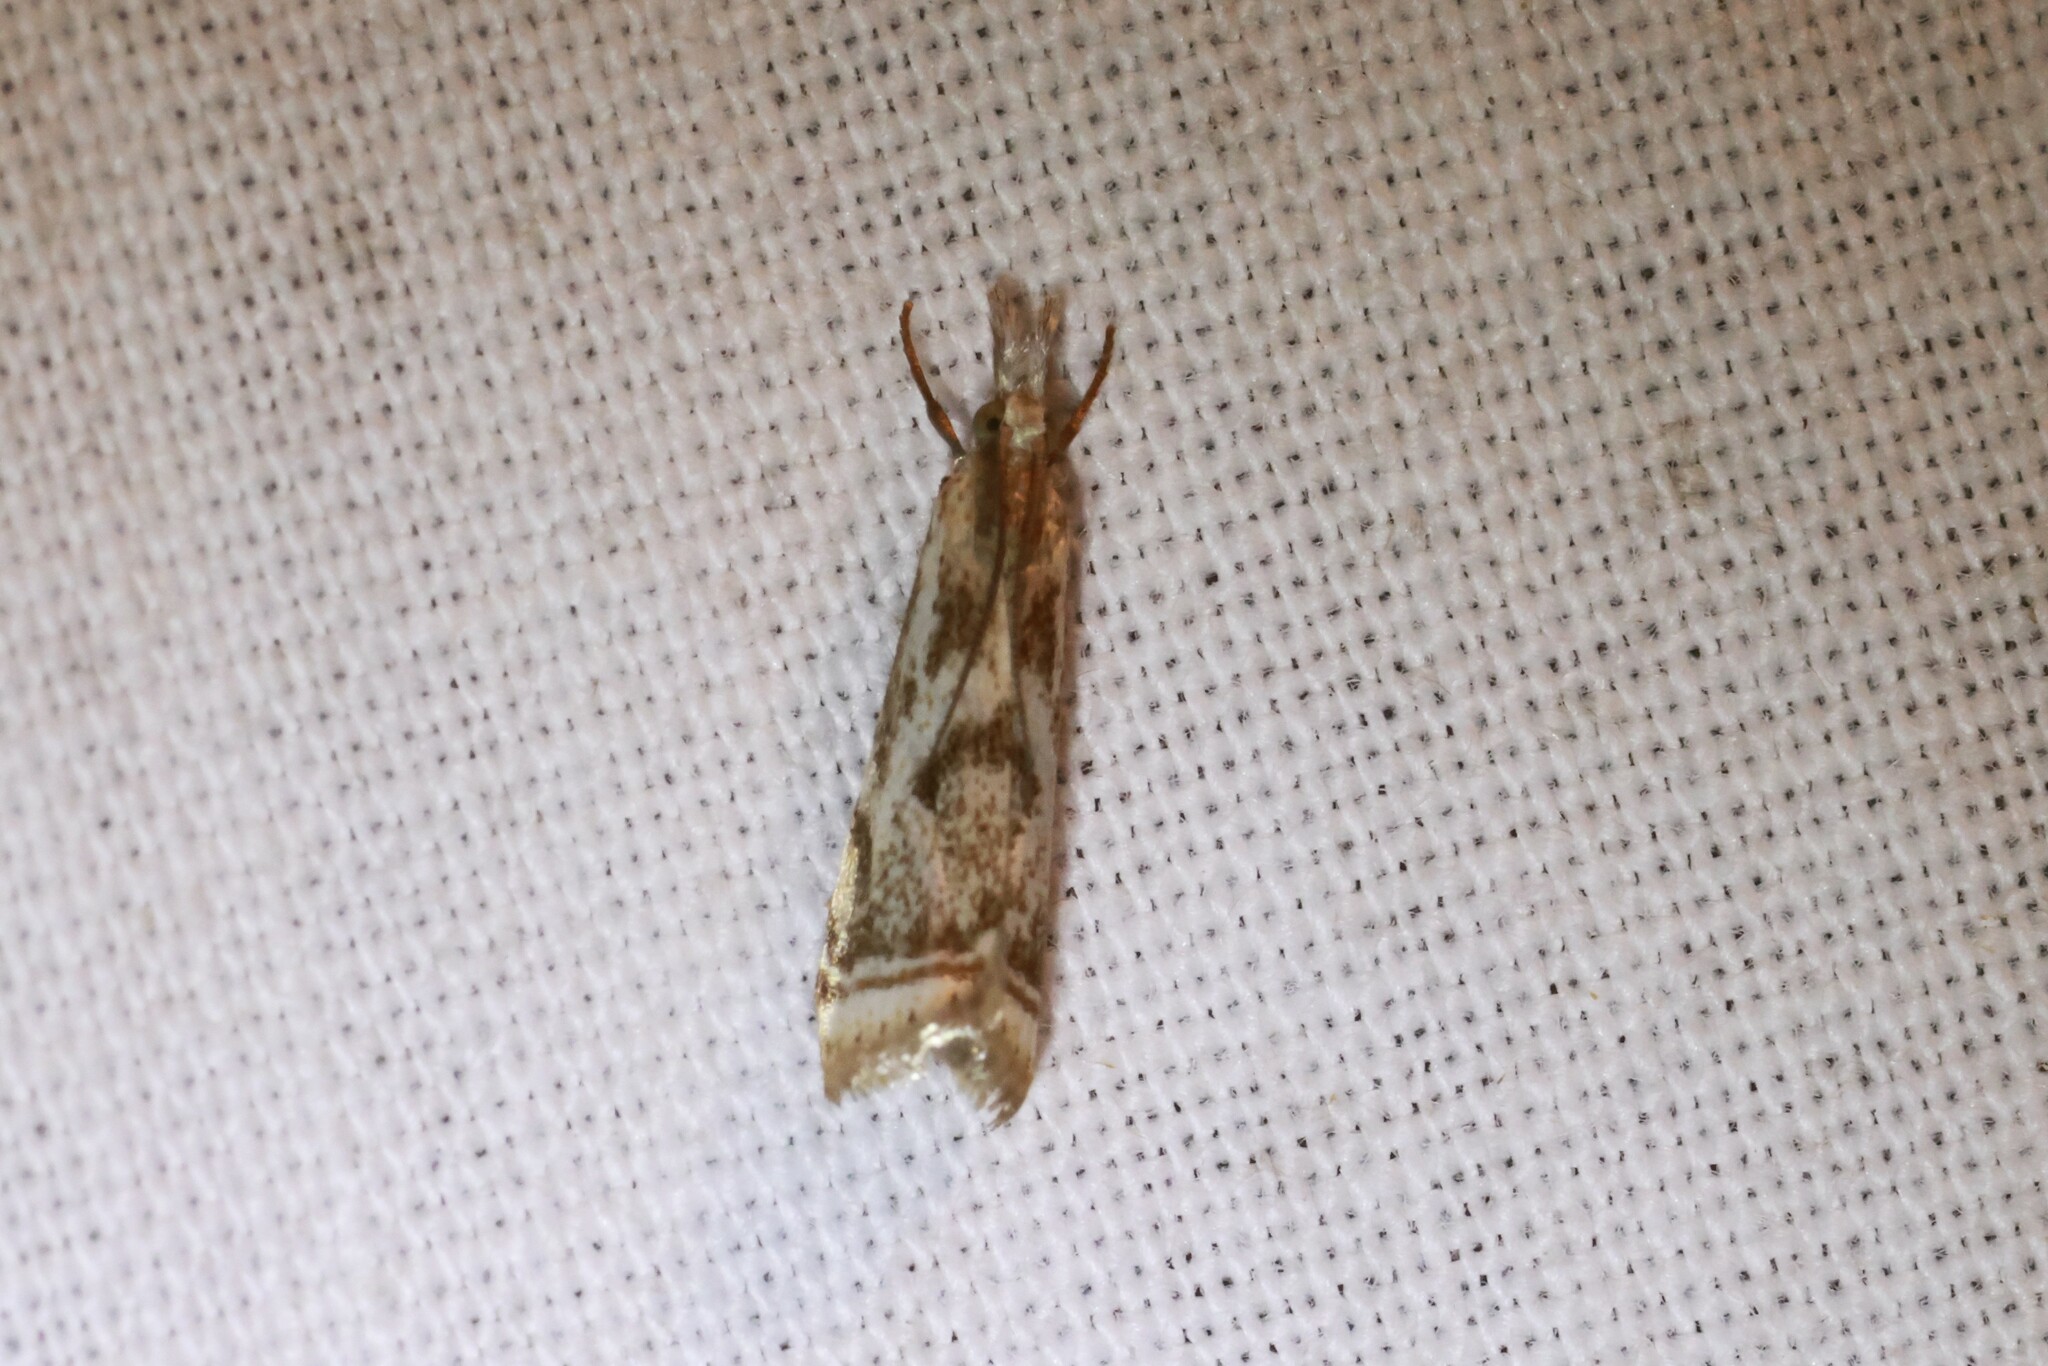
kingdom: Animalia
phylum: Arthropoda
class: Insecta
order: Lepidoptera
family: Crambidae
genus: Microcrambus
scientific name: Microcrambus elegans
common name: Elegant grass-veneer
